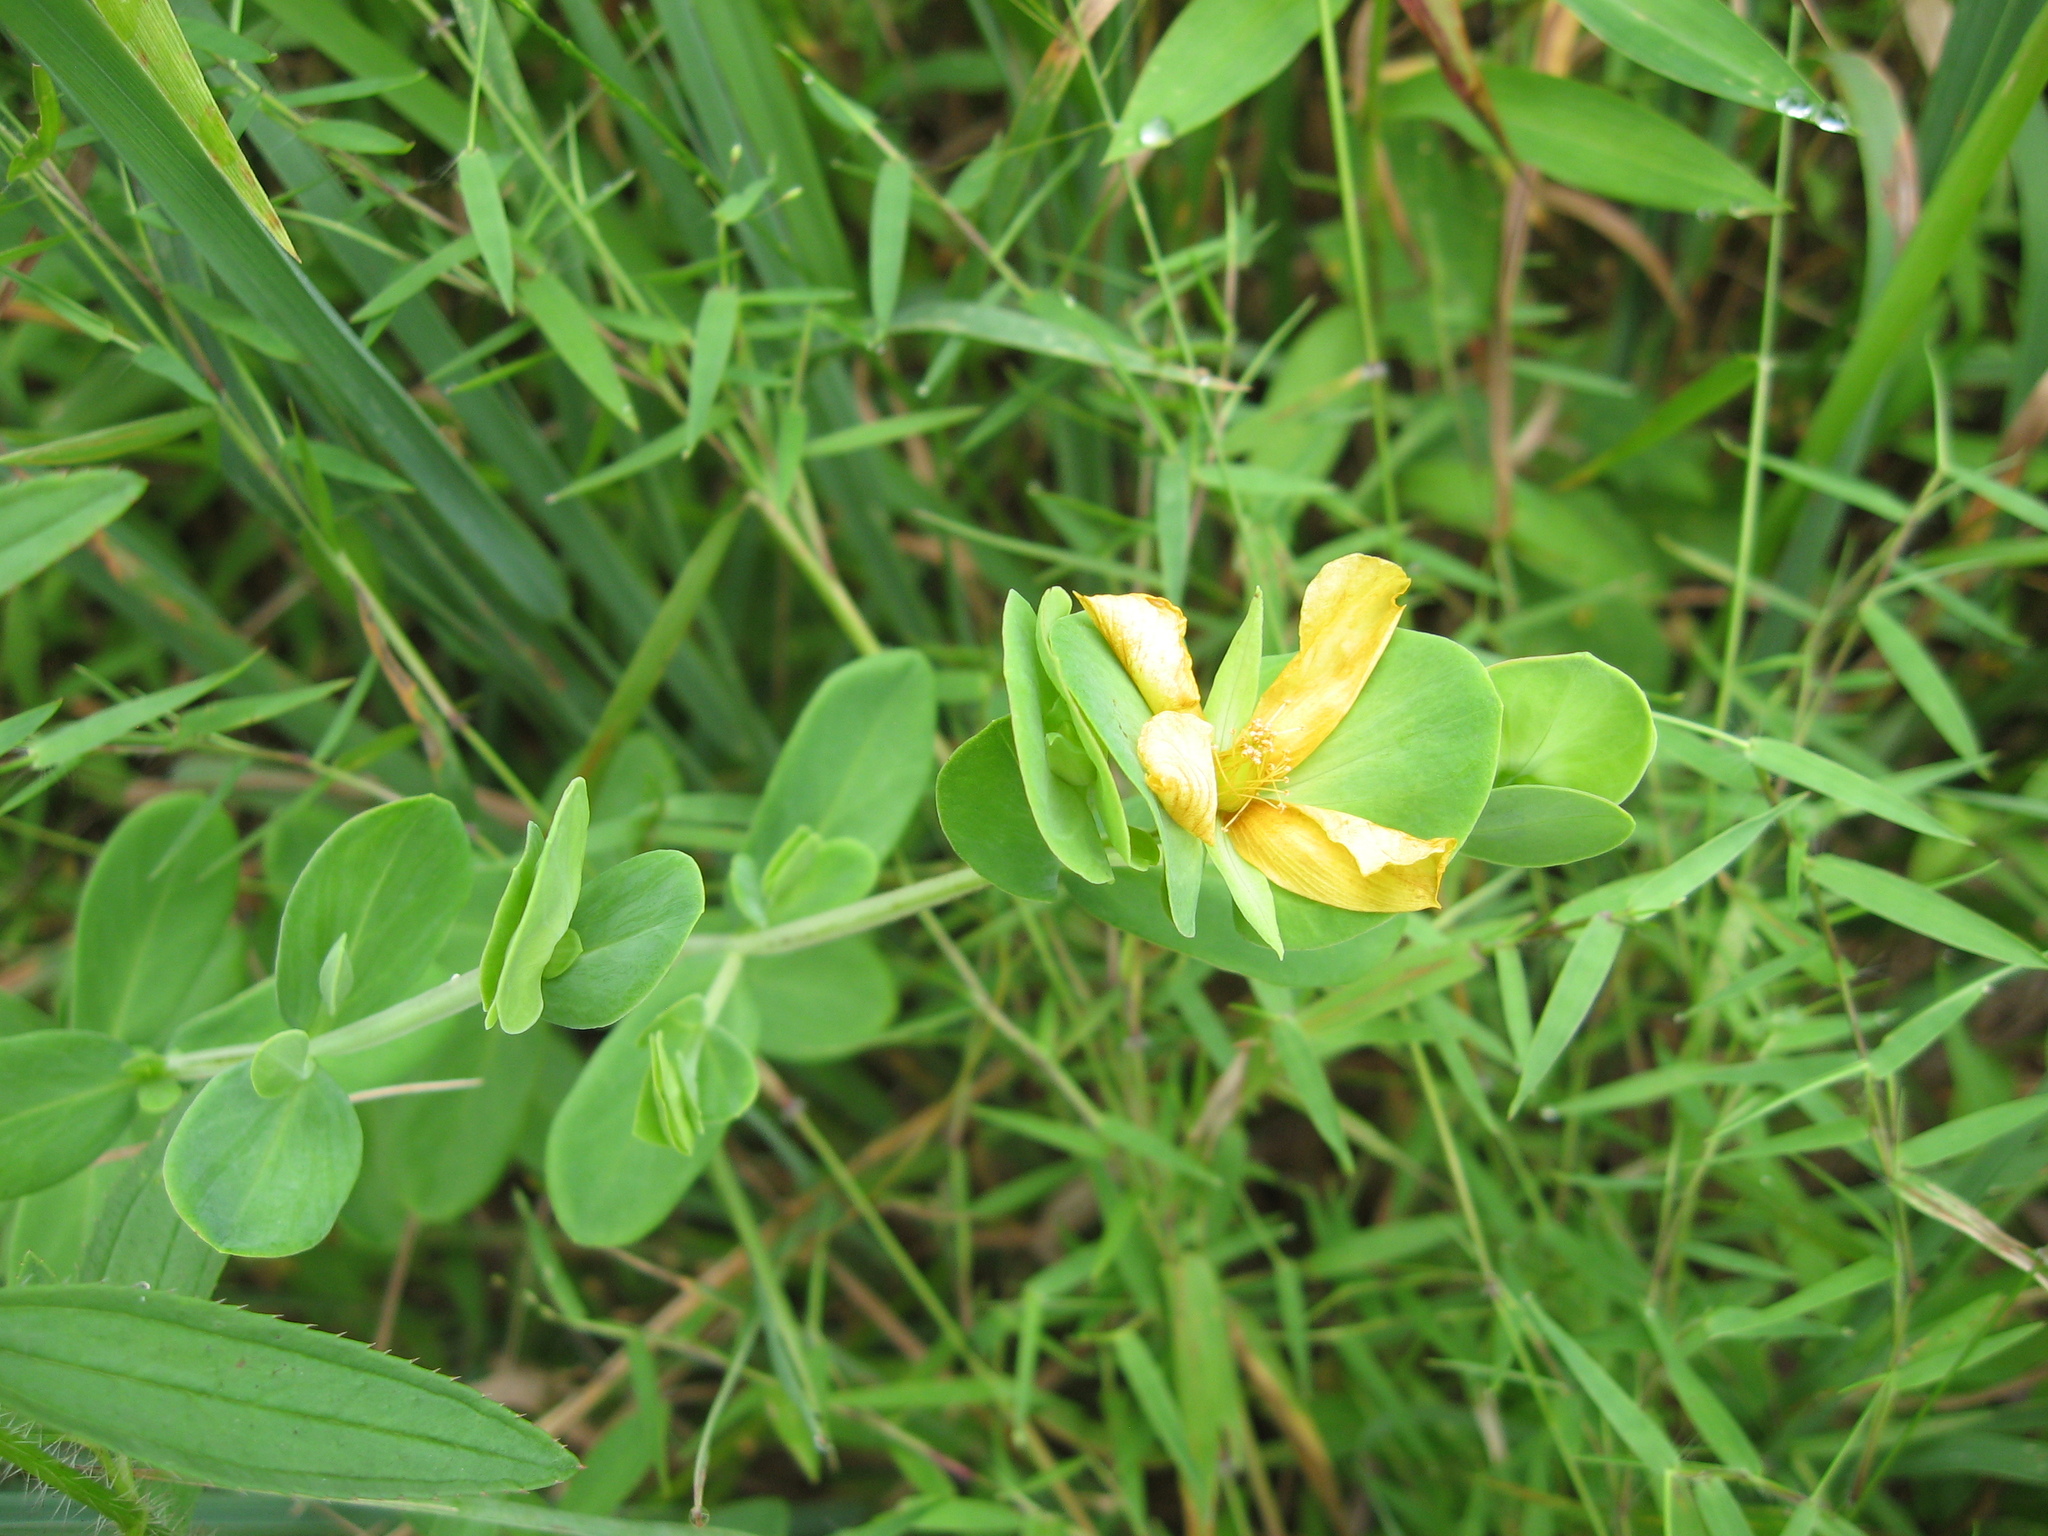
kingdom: Plantae
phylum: Tracheophyta
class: Magnoliopsida
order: Malpighiales
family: Hypericaceae
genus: Hypericum
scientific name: Hypericum crux-andreae
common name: St.-peter's-wort
